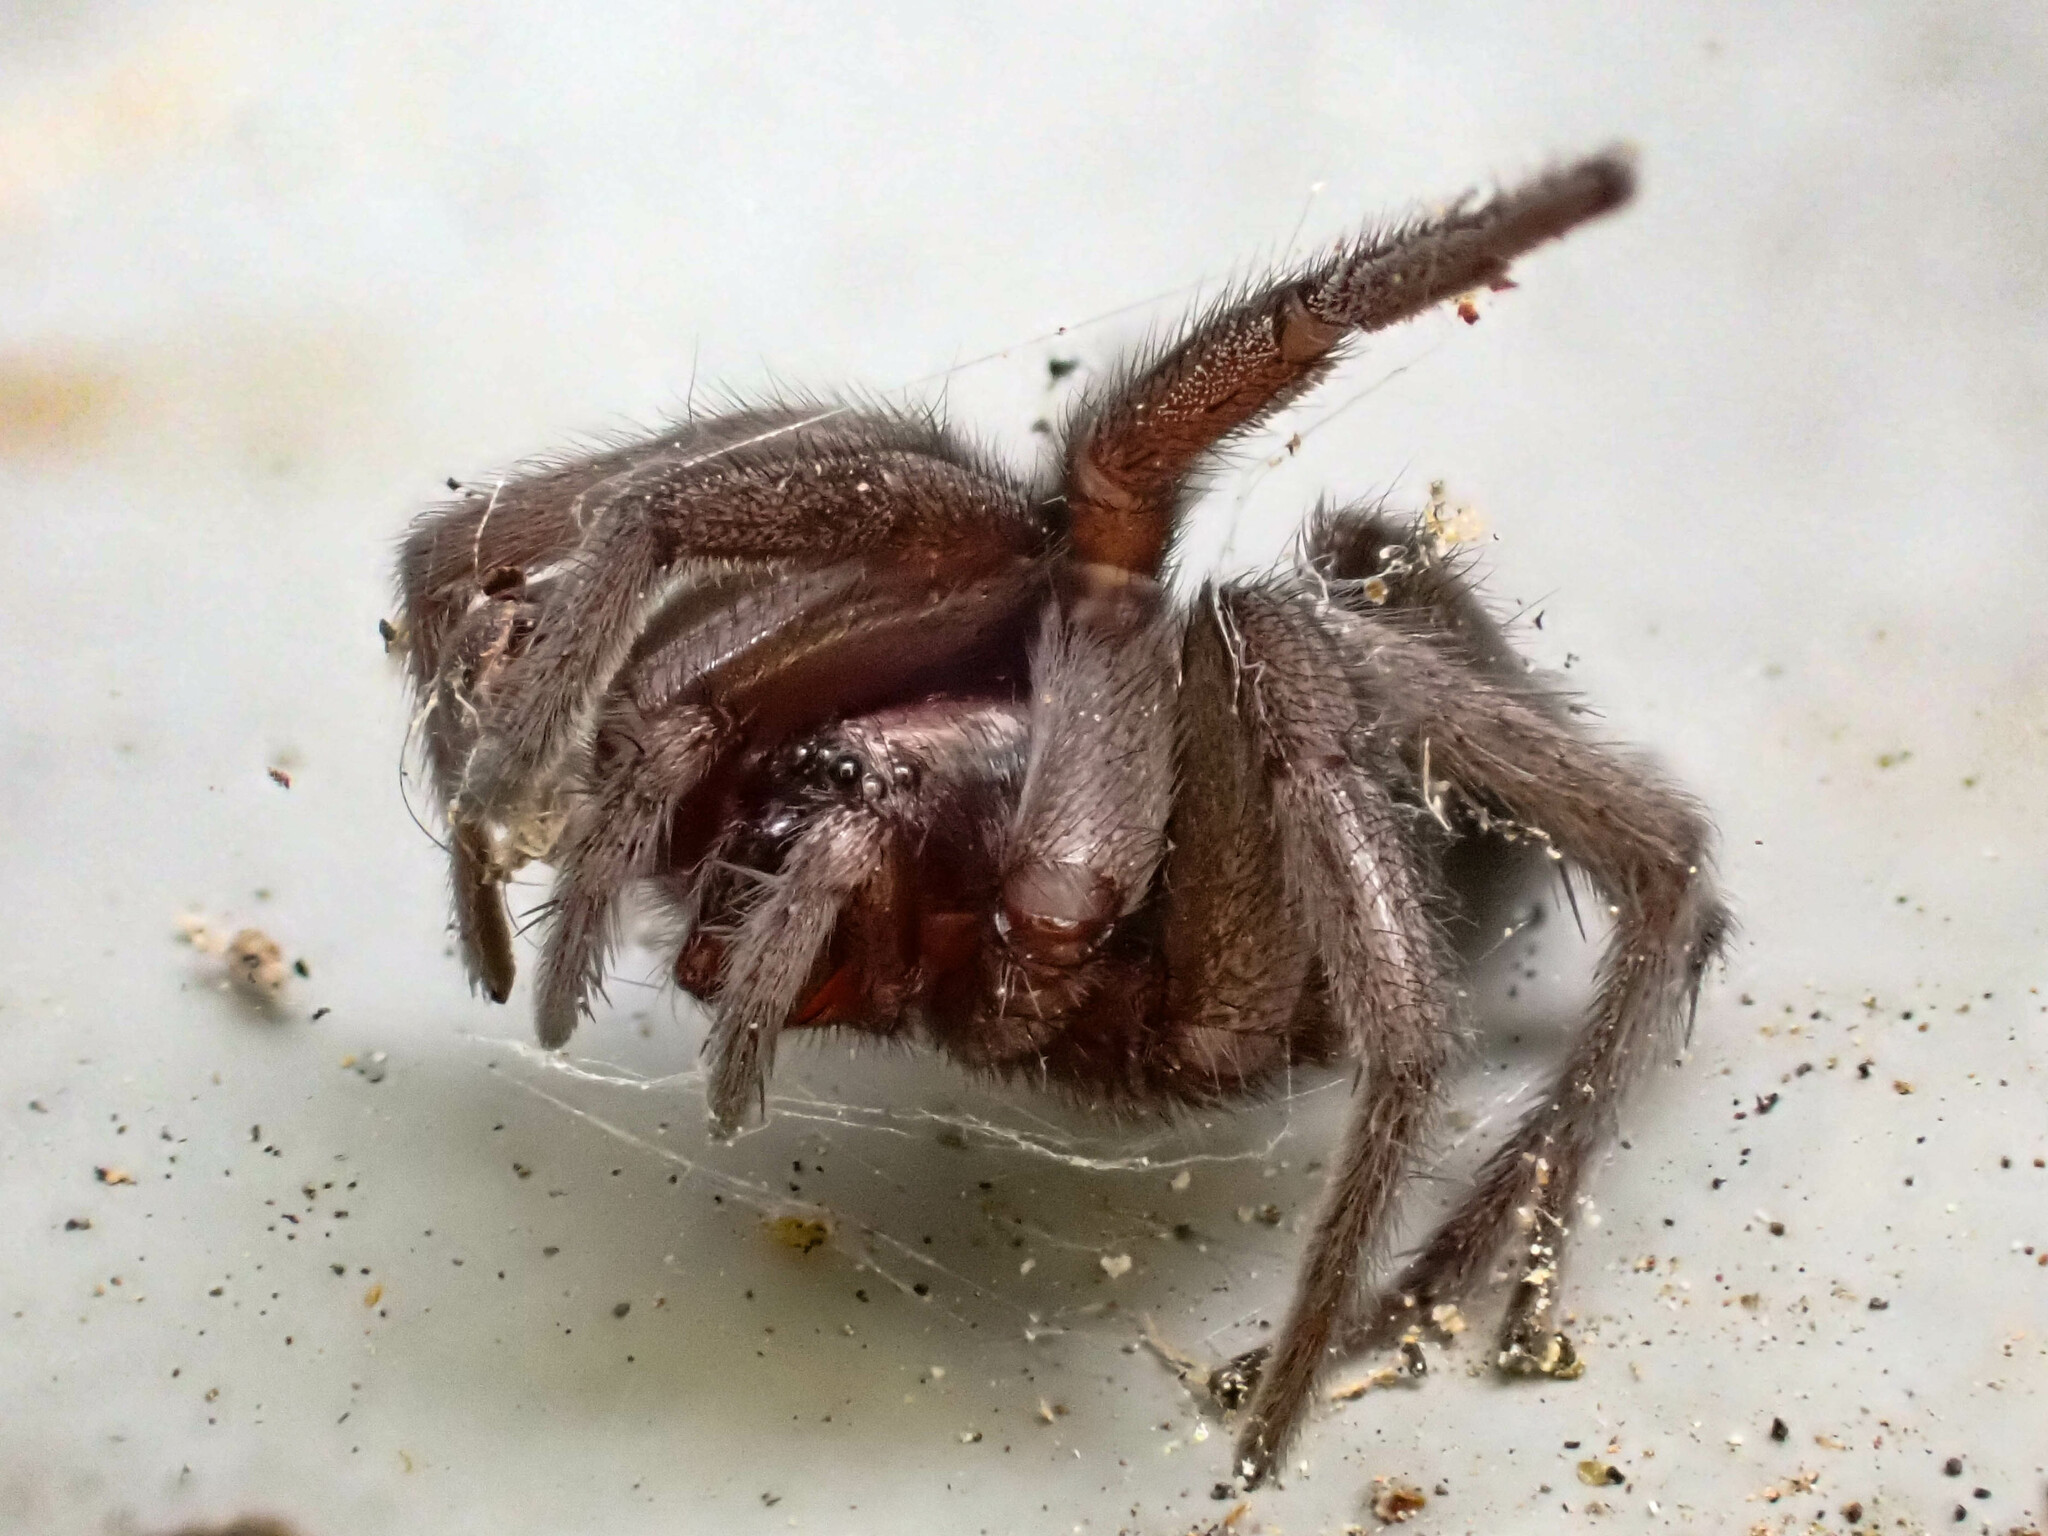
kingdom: Animalia
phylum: Arthropoda
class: Arachnida
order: Araneae
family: Gnaphosidae
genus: Herpyllus
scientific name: Herpyllus propinquus
